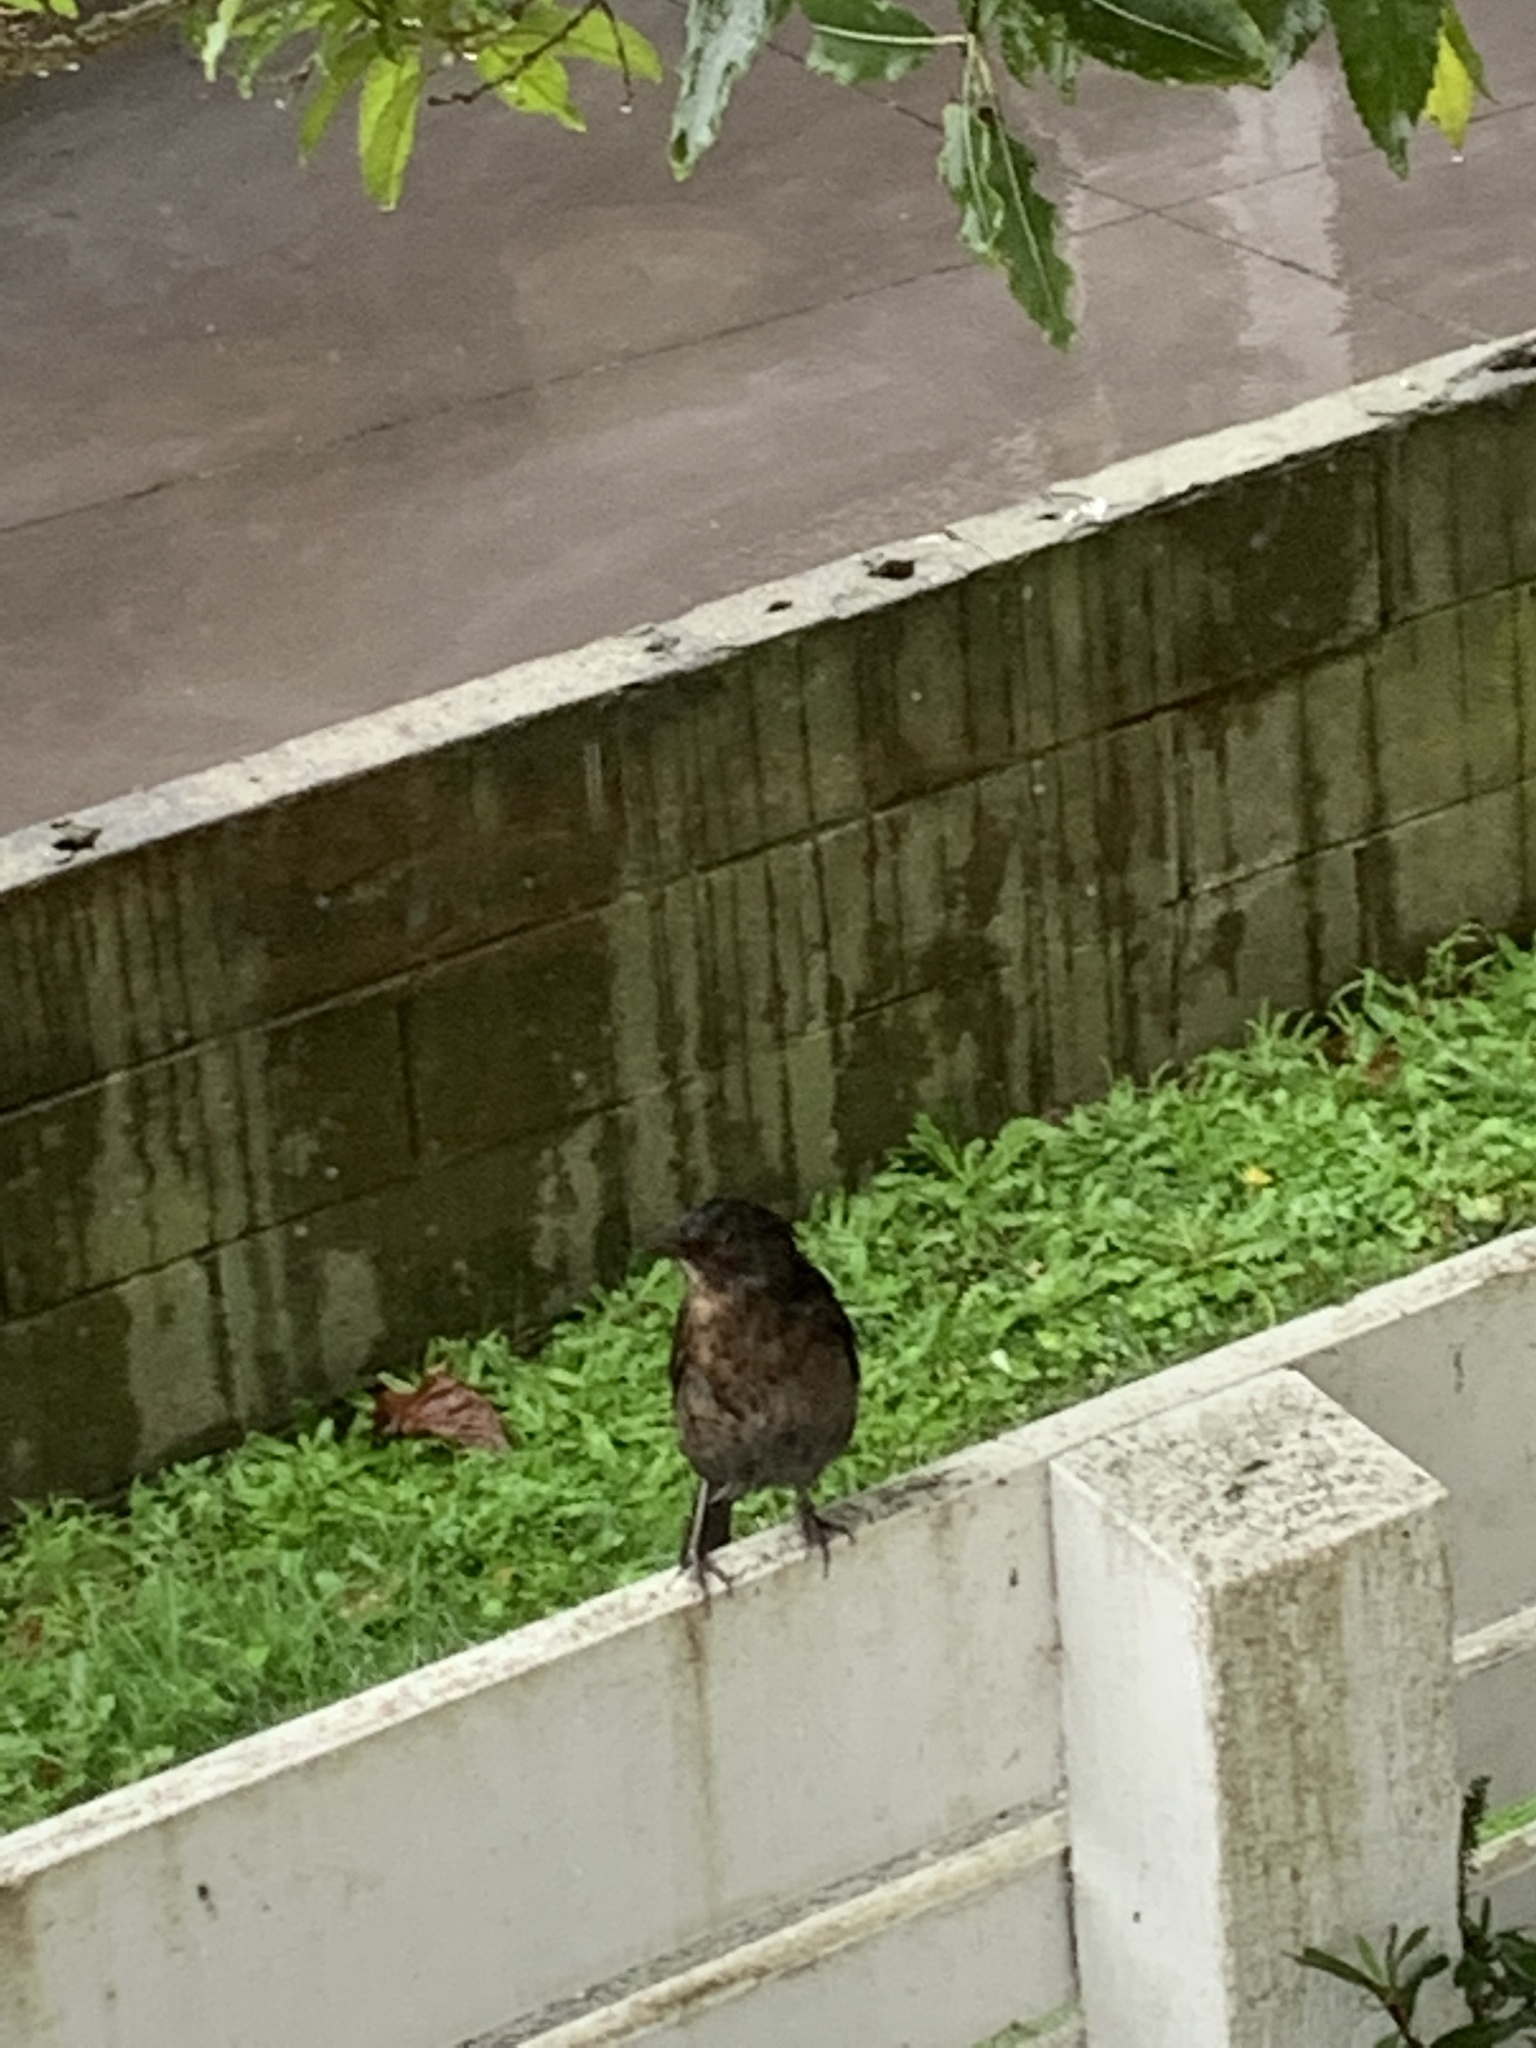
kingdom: Animalia
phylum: Chordata
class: Aves
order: Passeriformes
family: Turdidae
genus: Turdus
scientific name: Turdus merula
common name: Common blackbird
